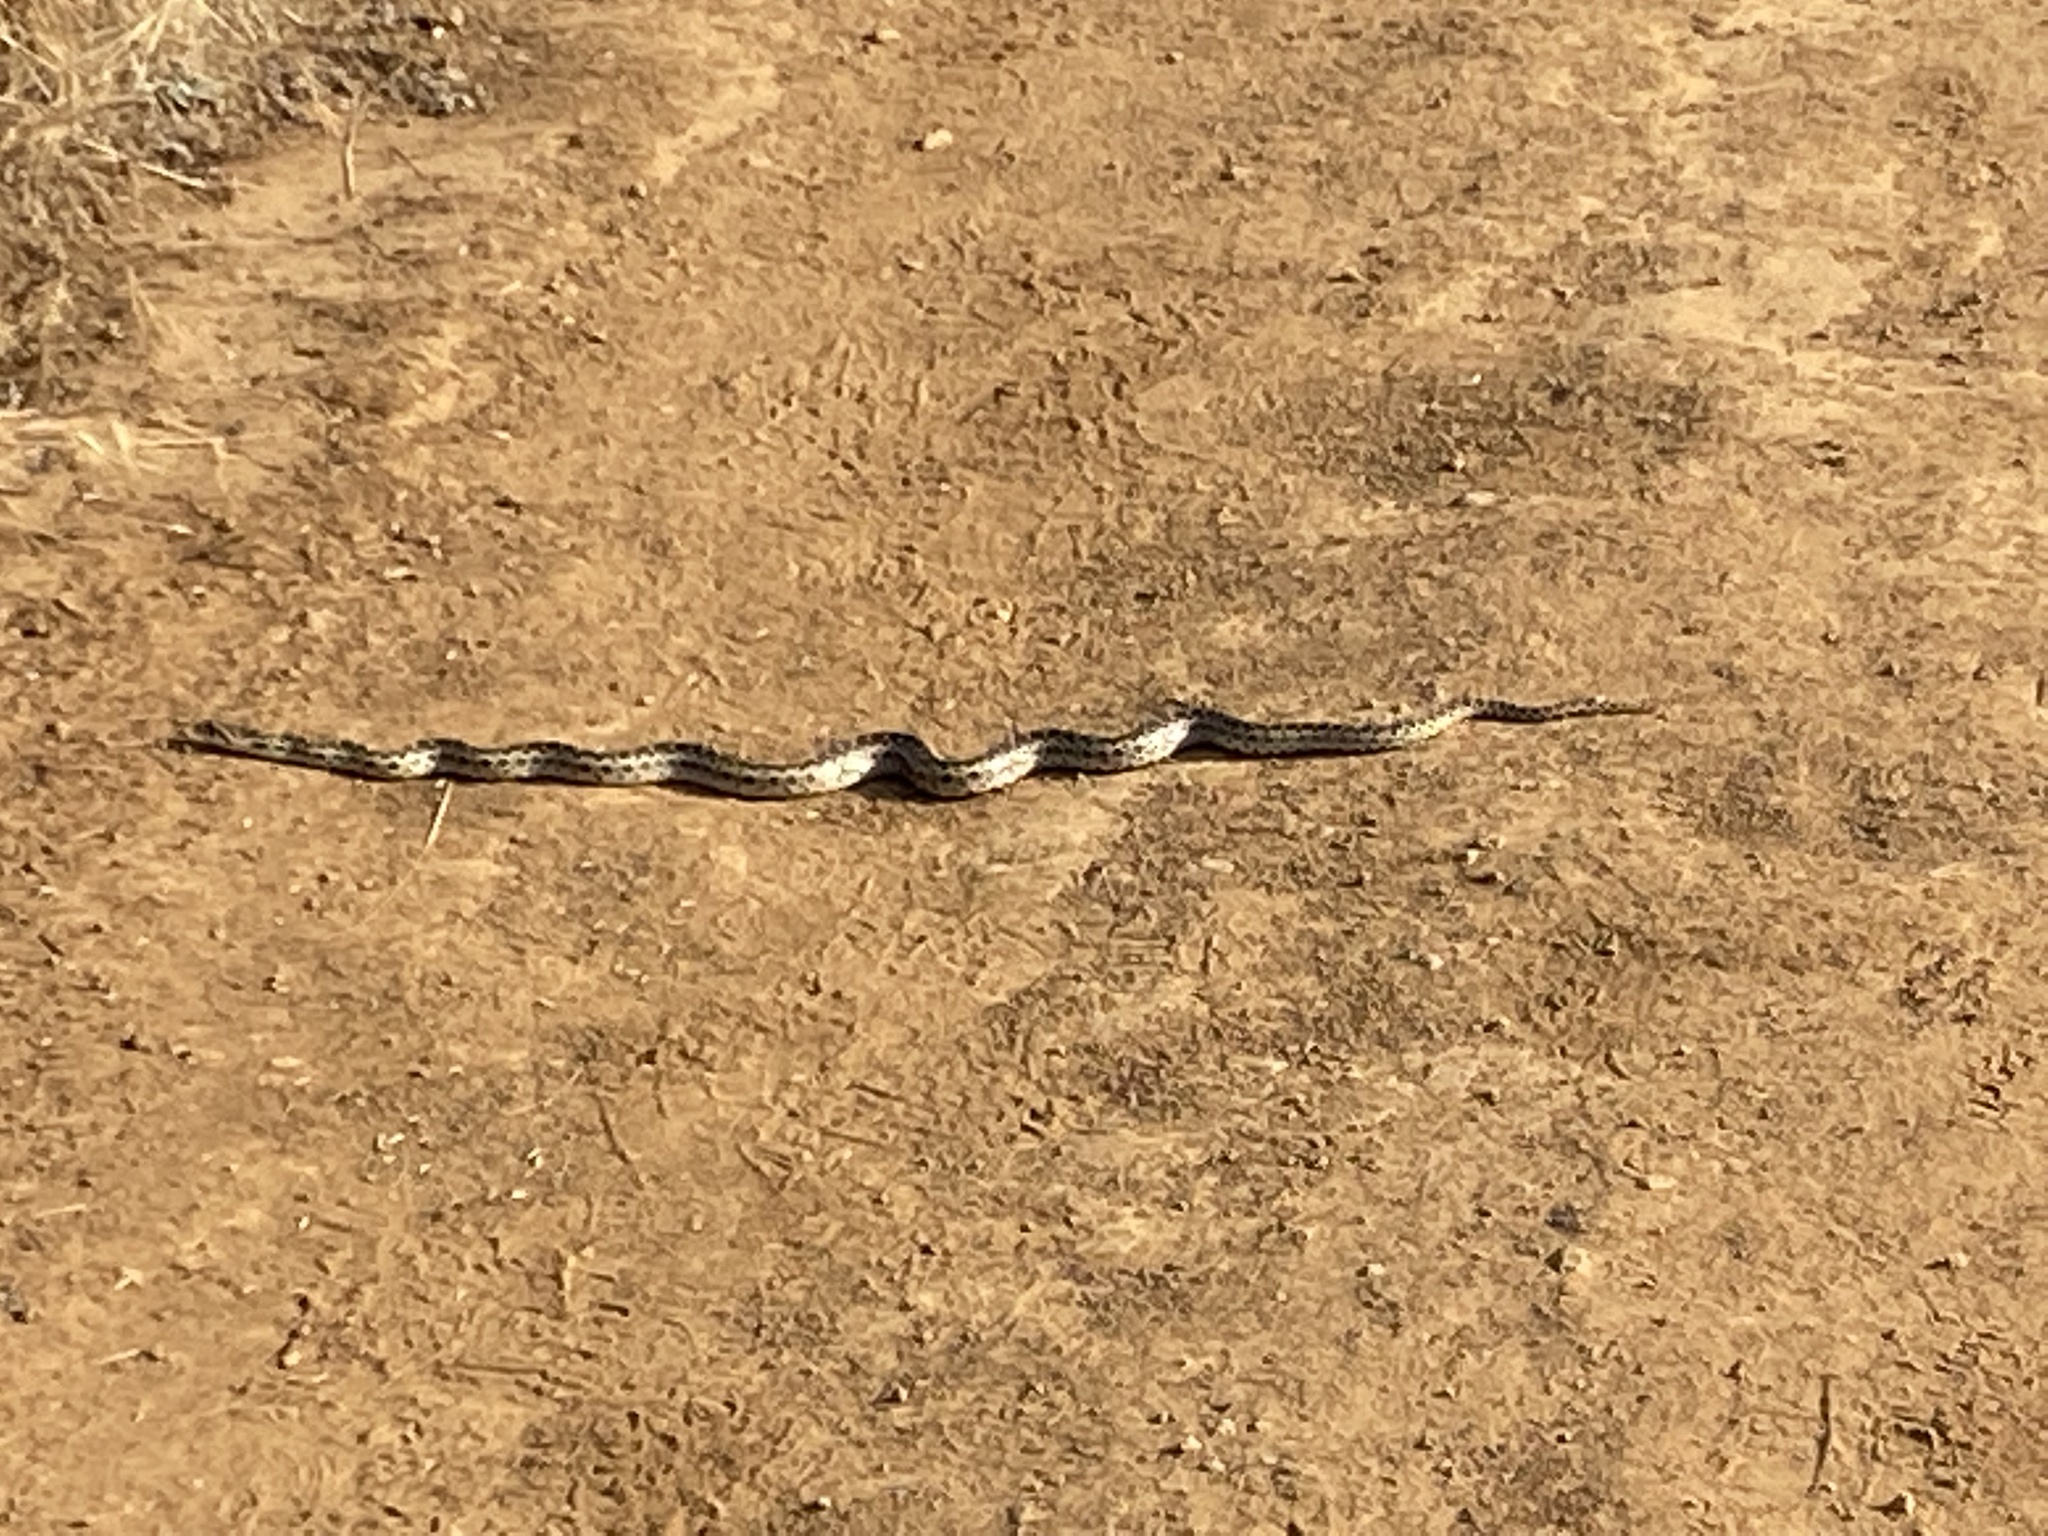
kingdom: Animalia
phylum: Chordata
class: Squamata
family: Colubridae
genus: Pituophis
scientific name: Pituophis catenifer
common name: Gopher snake
